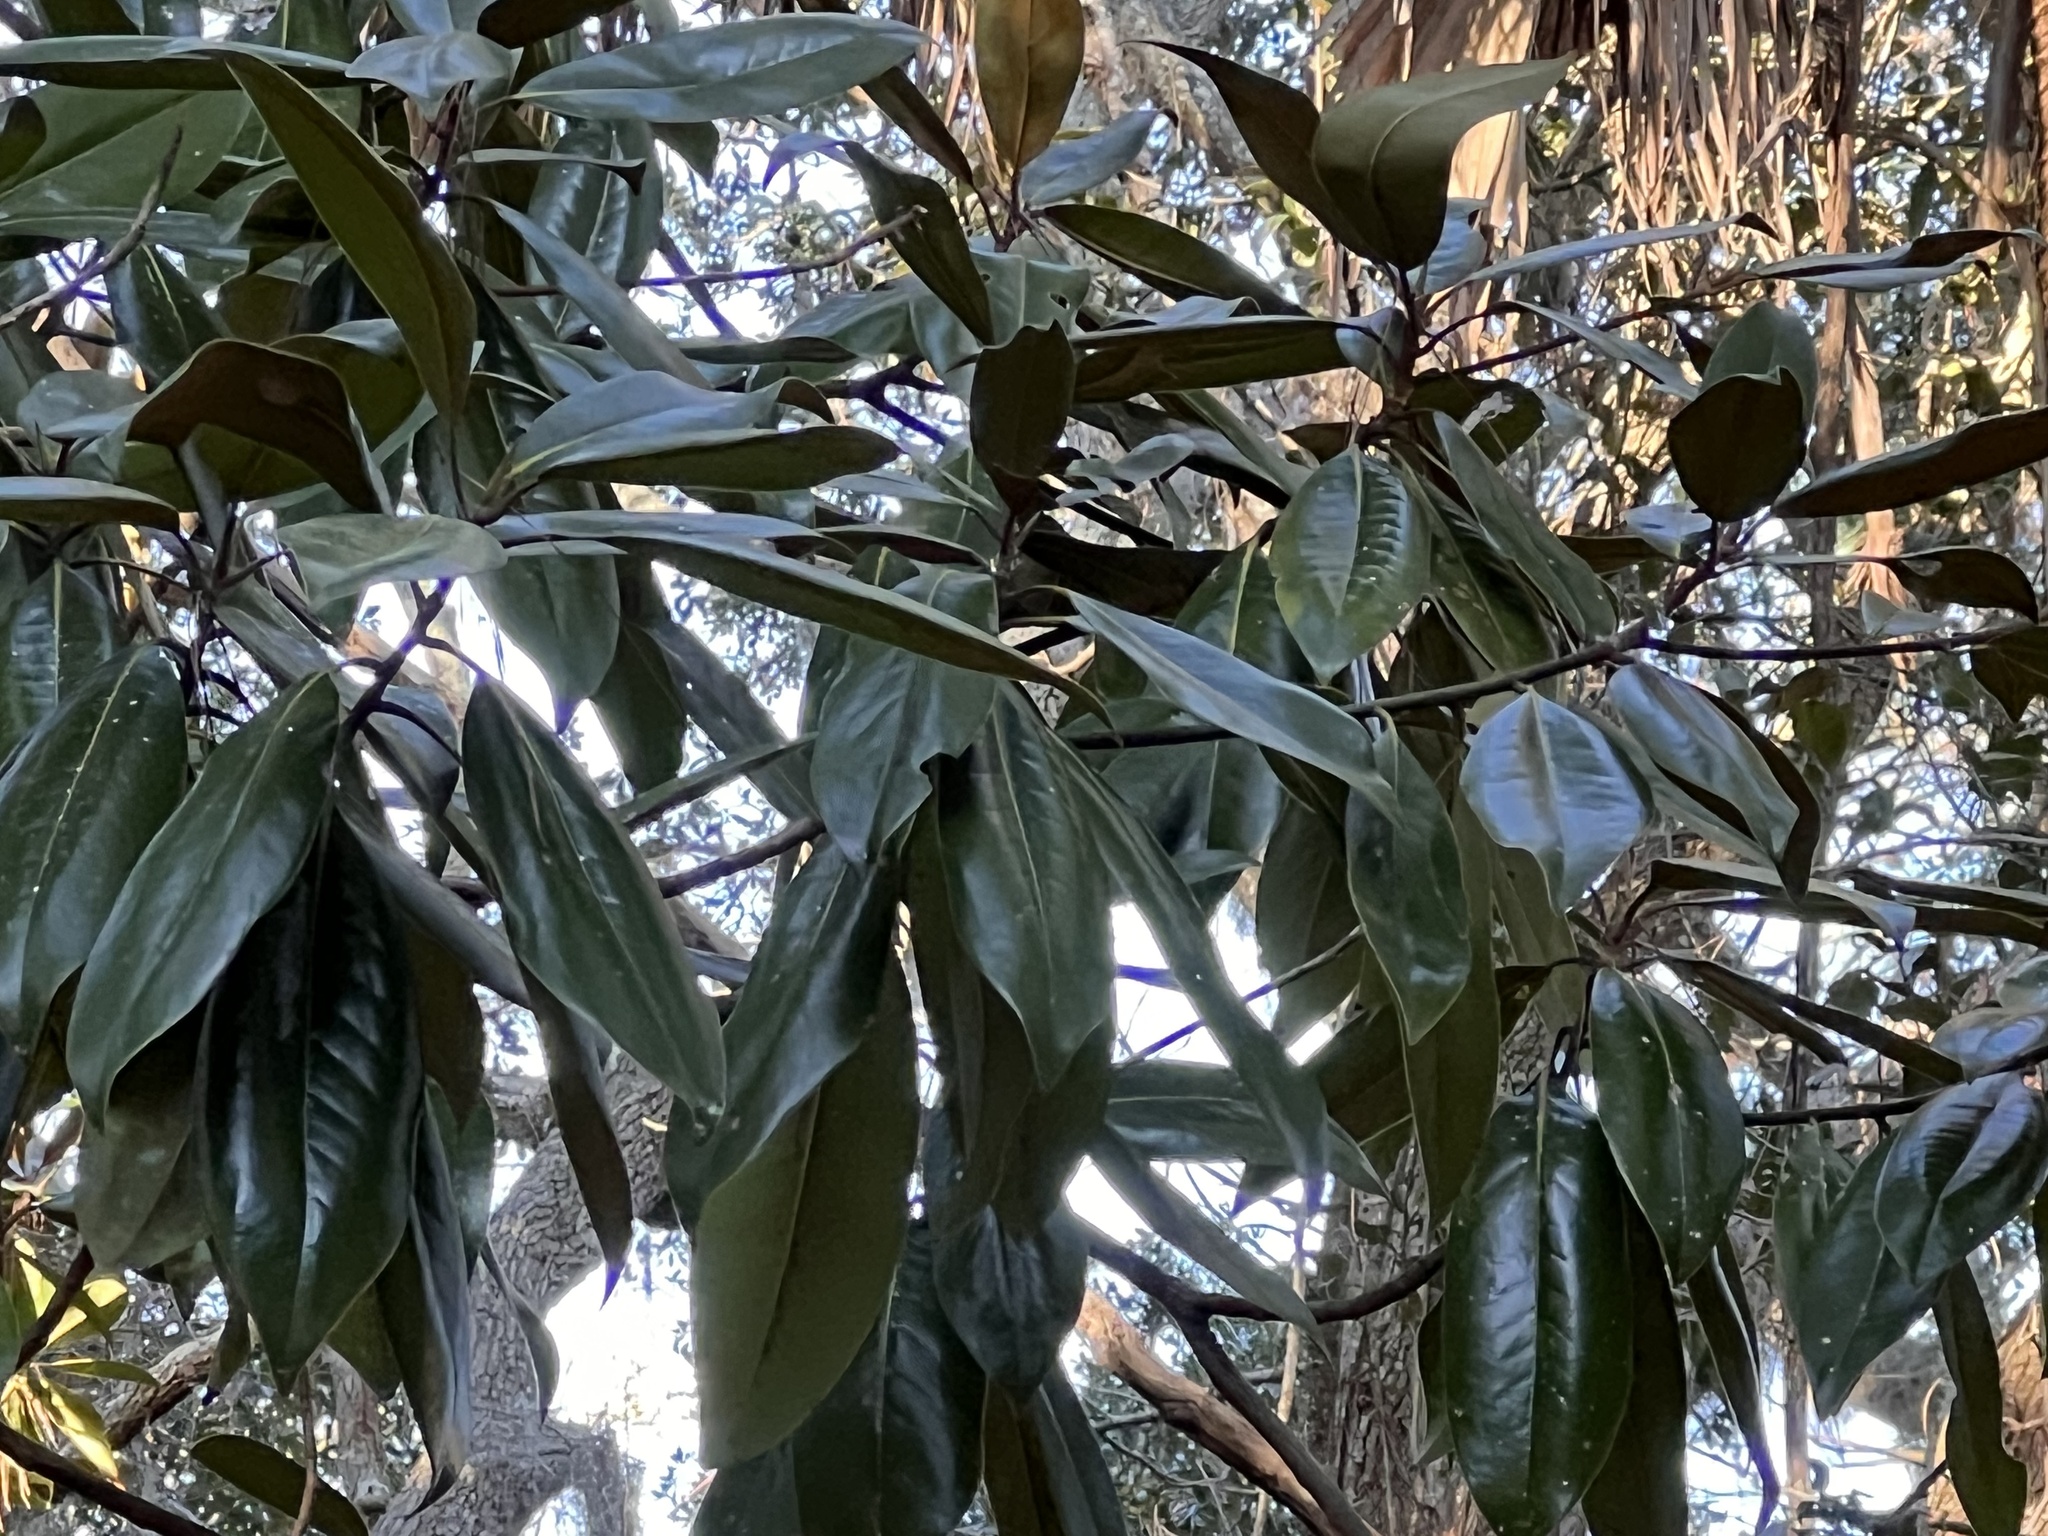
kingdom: Plantae
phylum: Tracheophyta
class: Magnoliopsida
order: Magnoliales
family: Magnoliaceae
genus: Magnolia
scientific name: Magnolia grandiflora
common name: Southern magnolia
